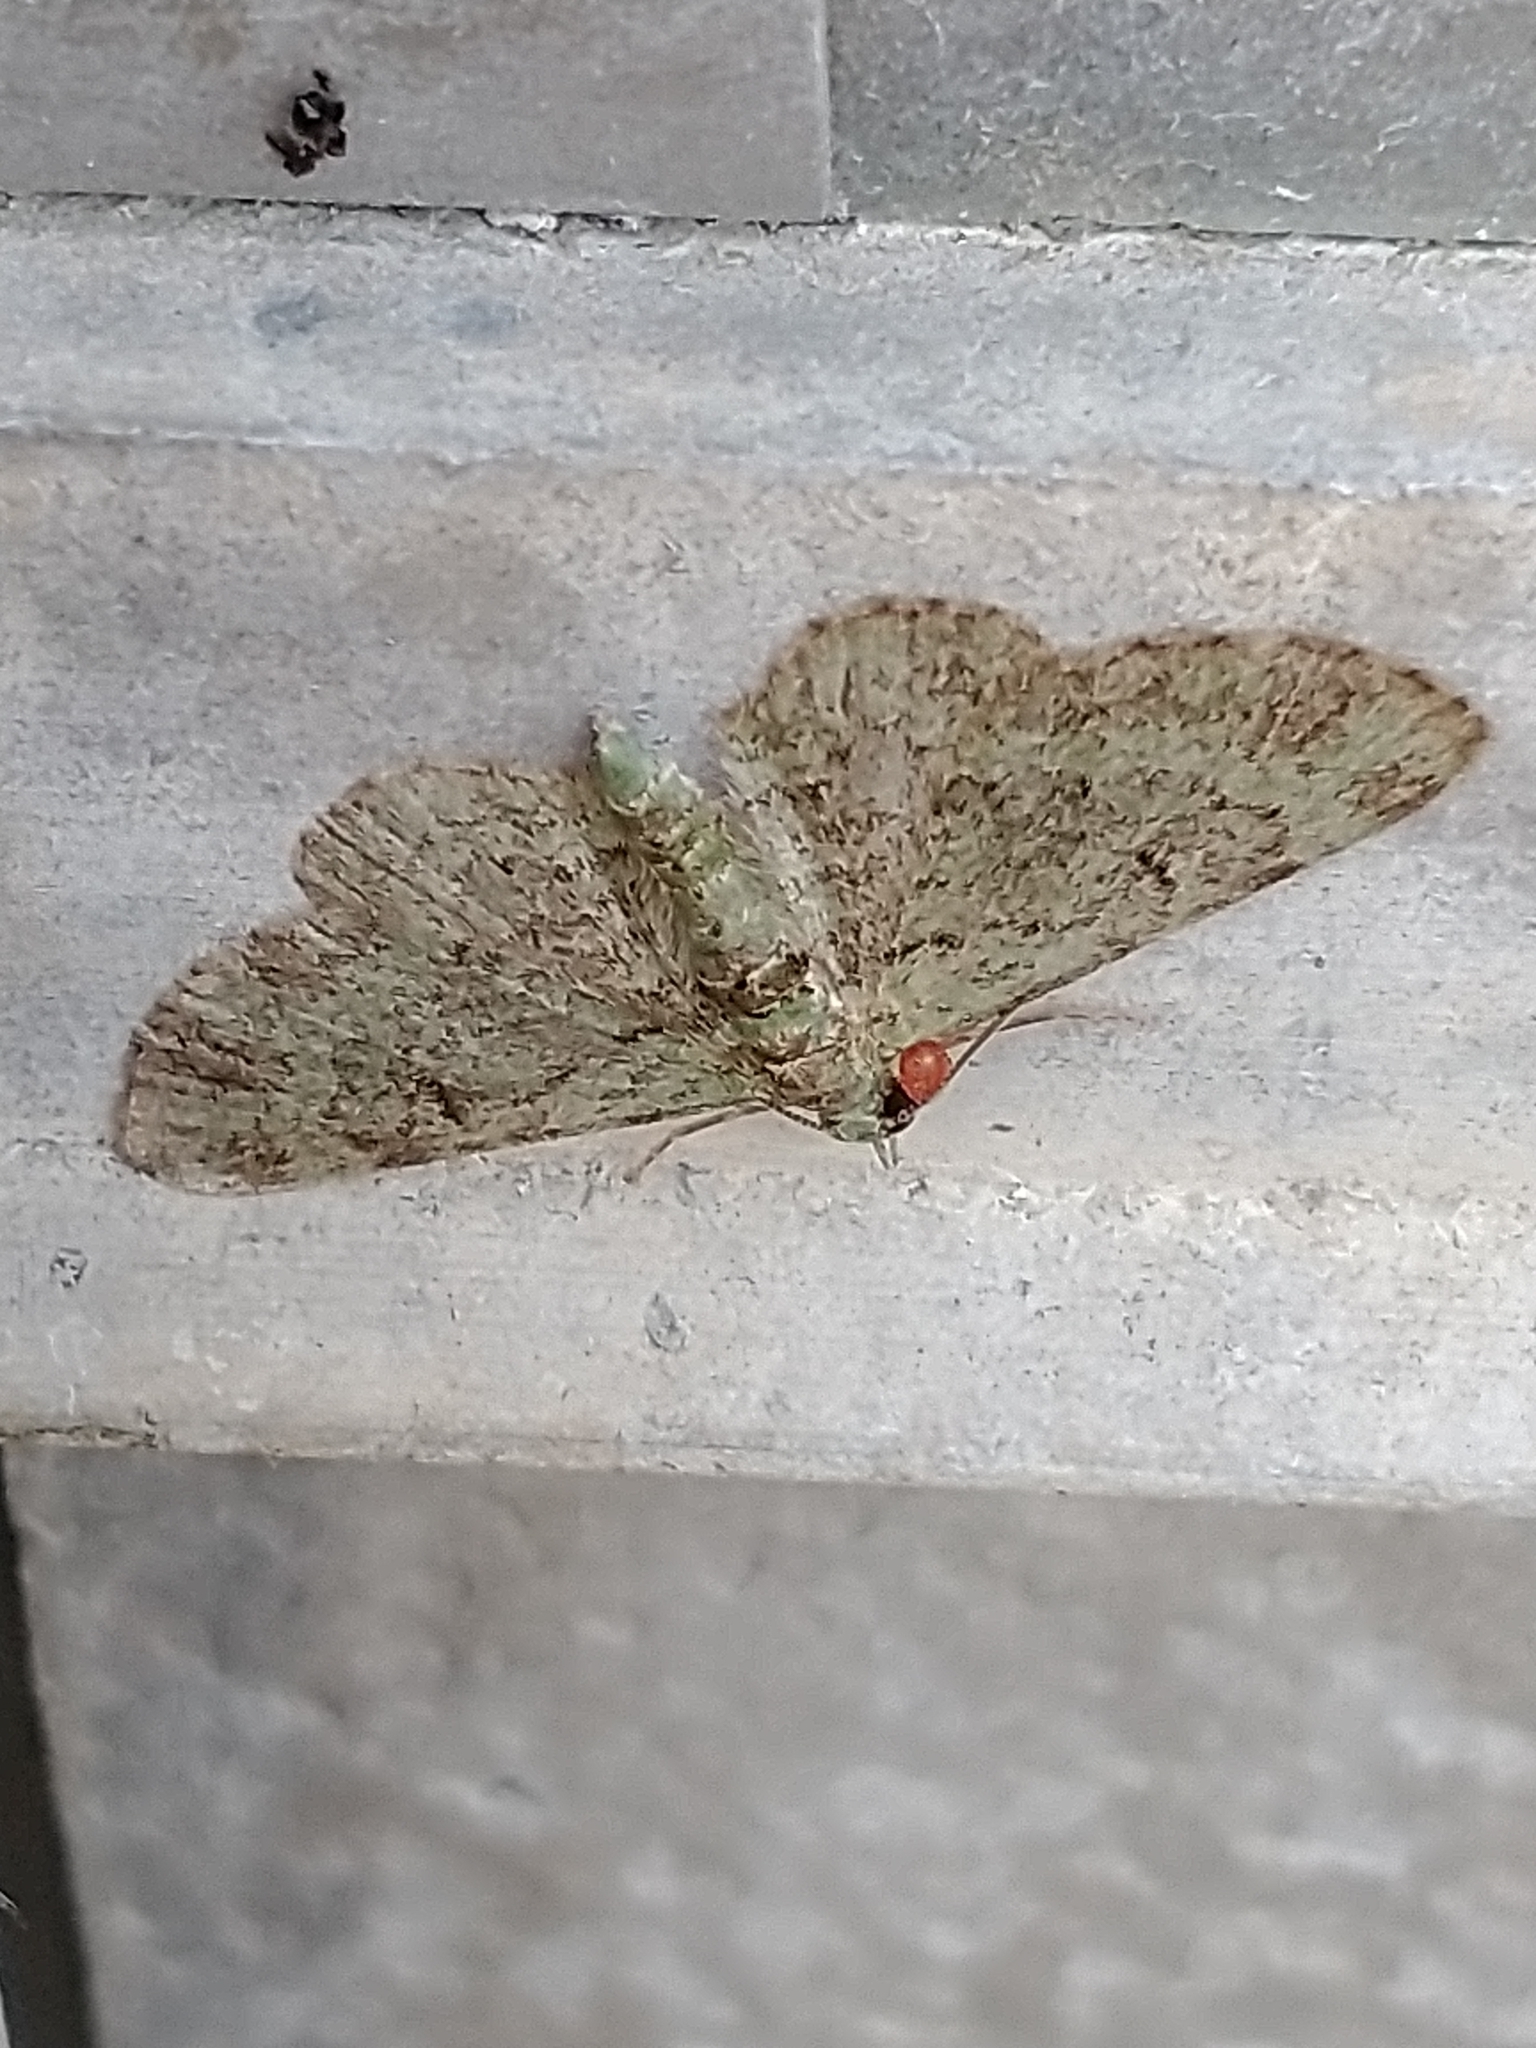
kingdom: Animalia
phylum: Arthropoda
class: Insecta
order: Lepidoptera
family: Geometridae
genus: Pasiphila
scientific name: Pasiphila rectangulata
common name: Green pug
